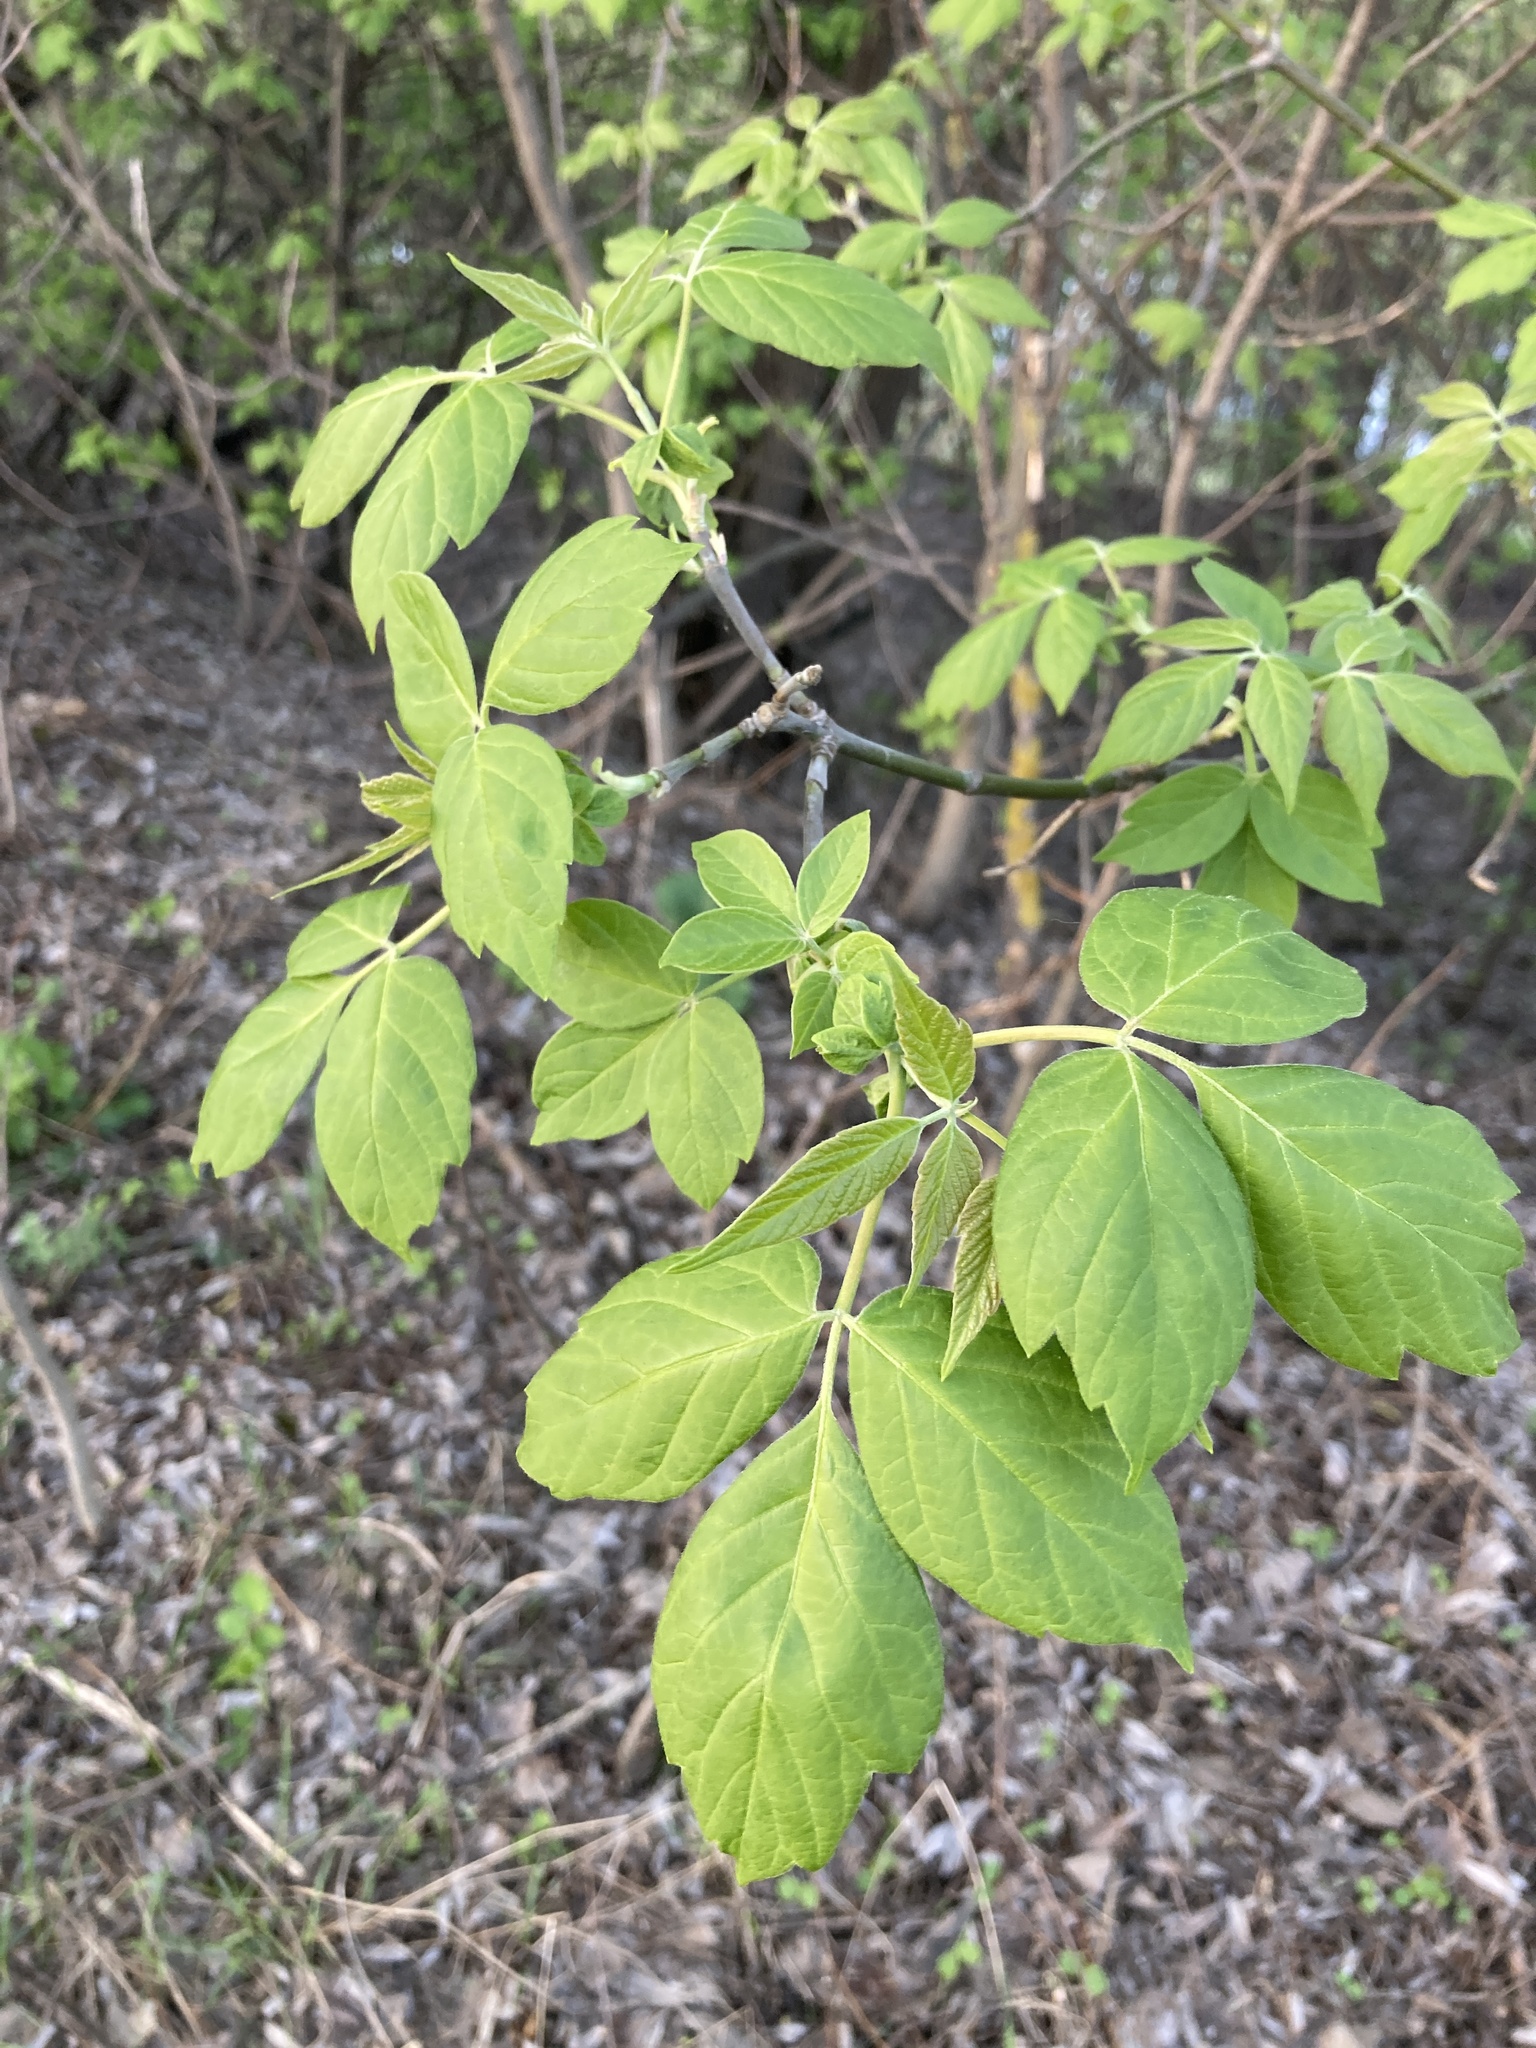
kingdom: Plantae
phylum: Tracheophyta
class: Magnoliopsida
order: Sapindales
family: Sapindaceae
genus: Acer
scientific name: Acer negundo
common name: Ashleaf maple
